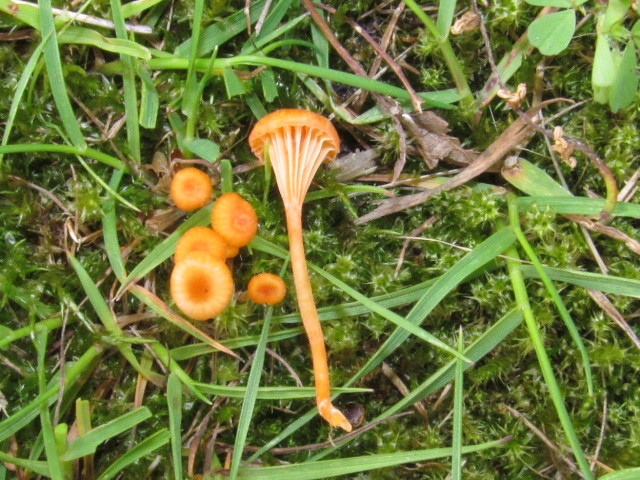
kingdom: Fungi
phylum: Basidiomycota
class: Agaricomycetes
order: Hymenochaetales
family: Rickenellaceae
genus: Rickenella
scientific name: Rickenella fibula
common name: Orange mosscap
